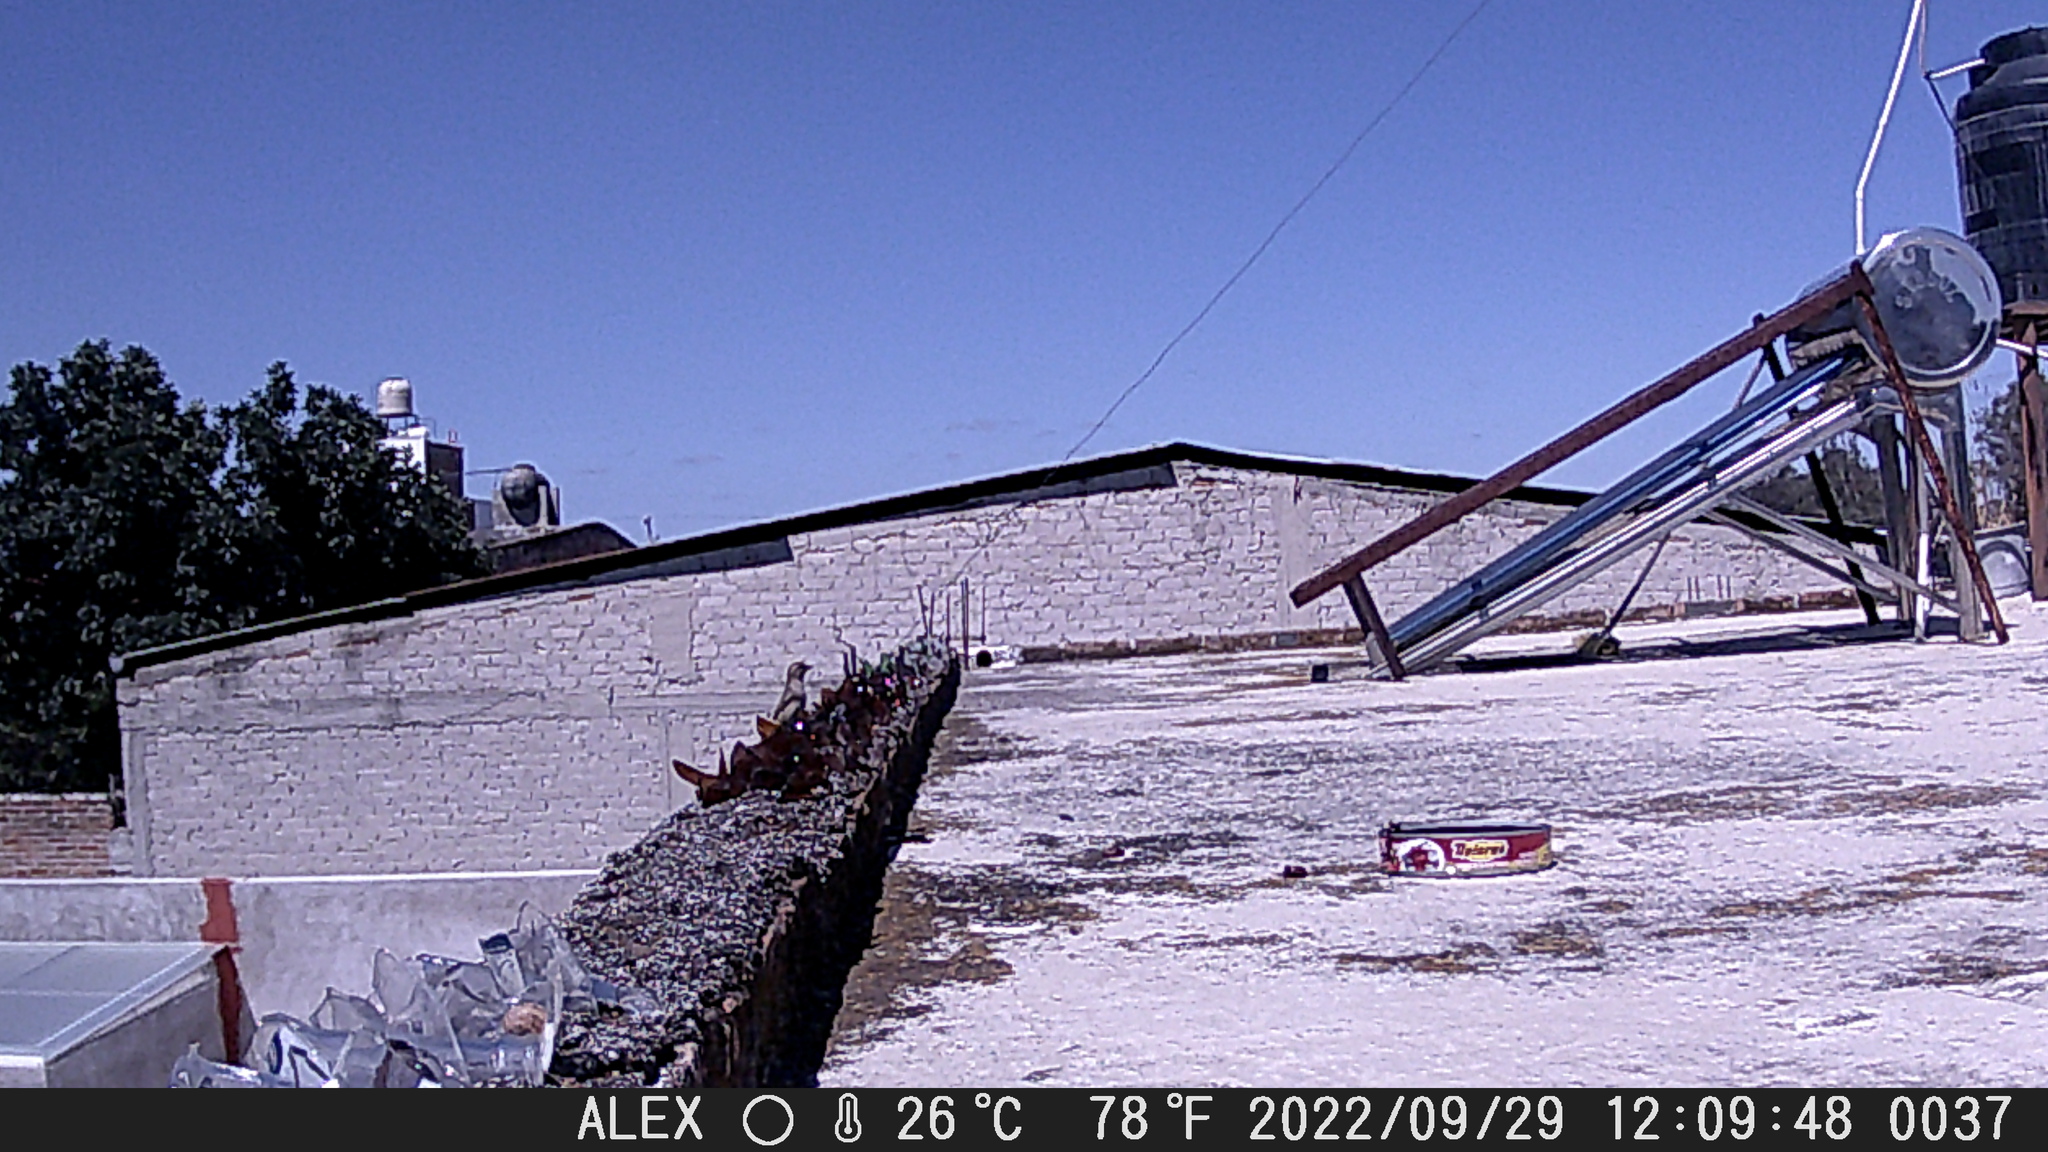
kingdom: Animalia
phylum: Chordata
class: Aves
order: Passeriformes
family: Passeridae
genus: Passer
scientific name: Passer domesticus
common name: House sparrow
